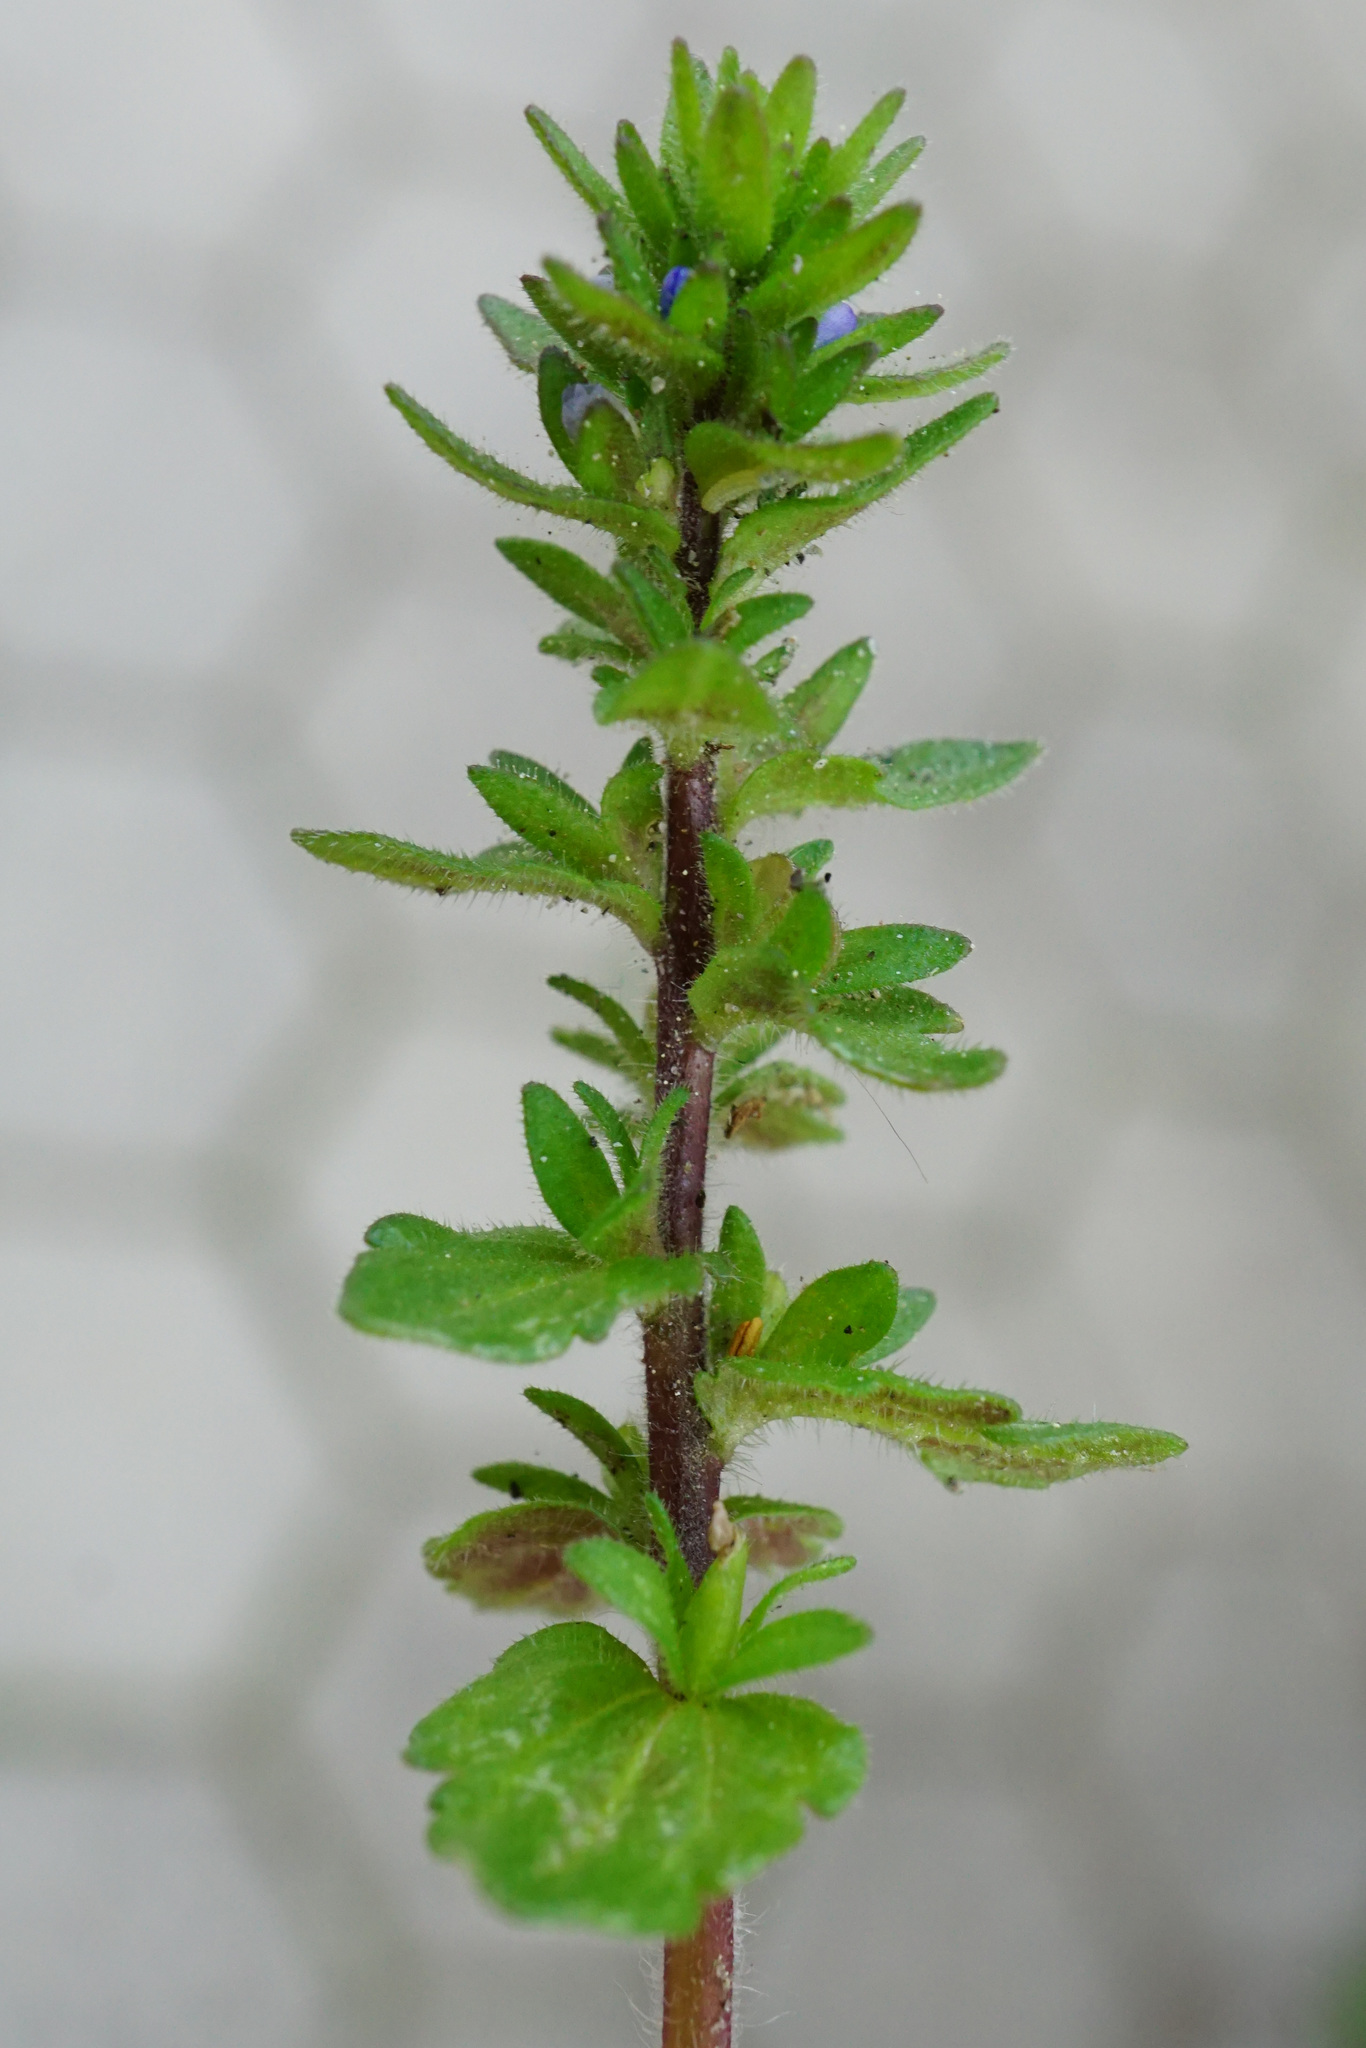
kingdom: Plantae
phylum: Tracheophyta
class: Magnoliopsida
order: Lamiales
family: Plantaginaceae
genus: Veronica
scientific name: Veronica arvensis
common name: Corn speedwell
